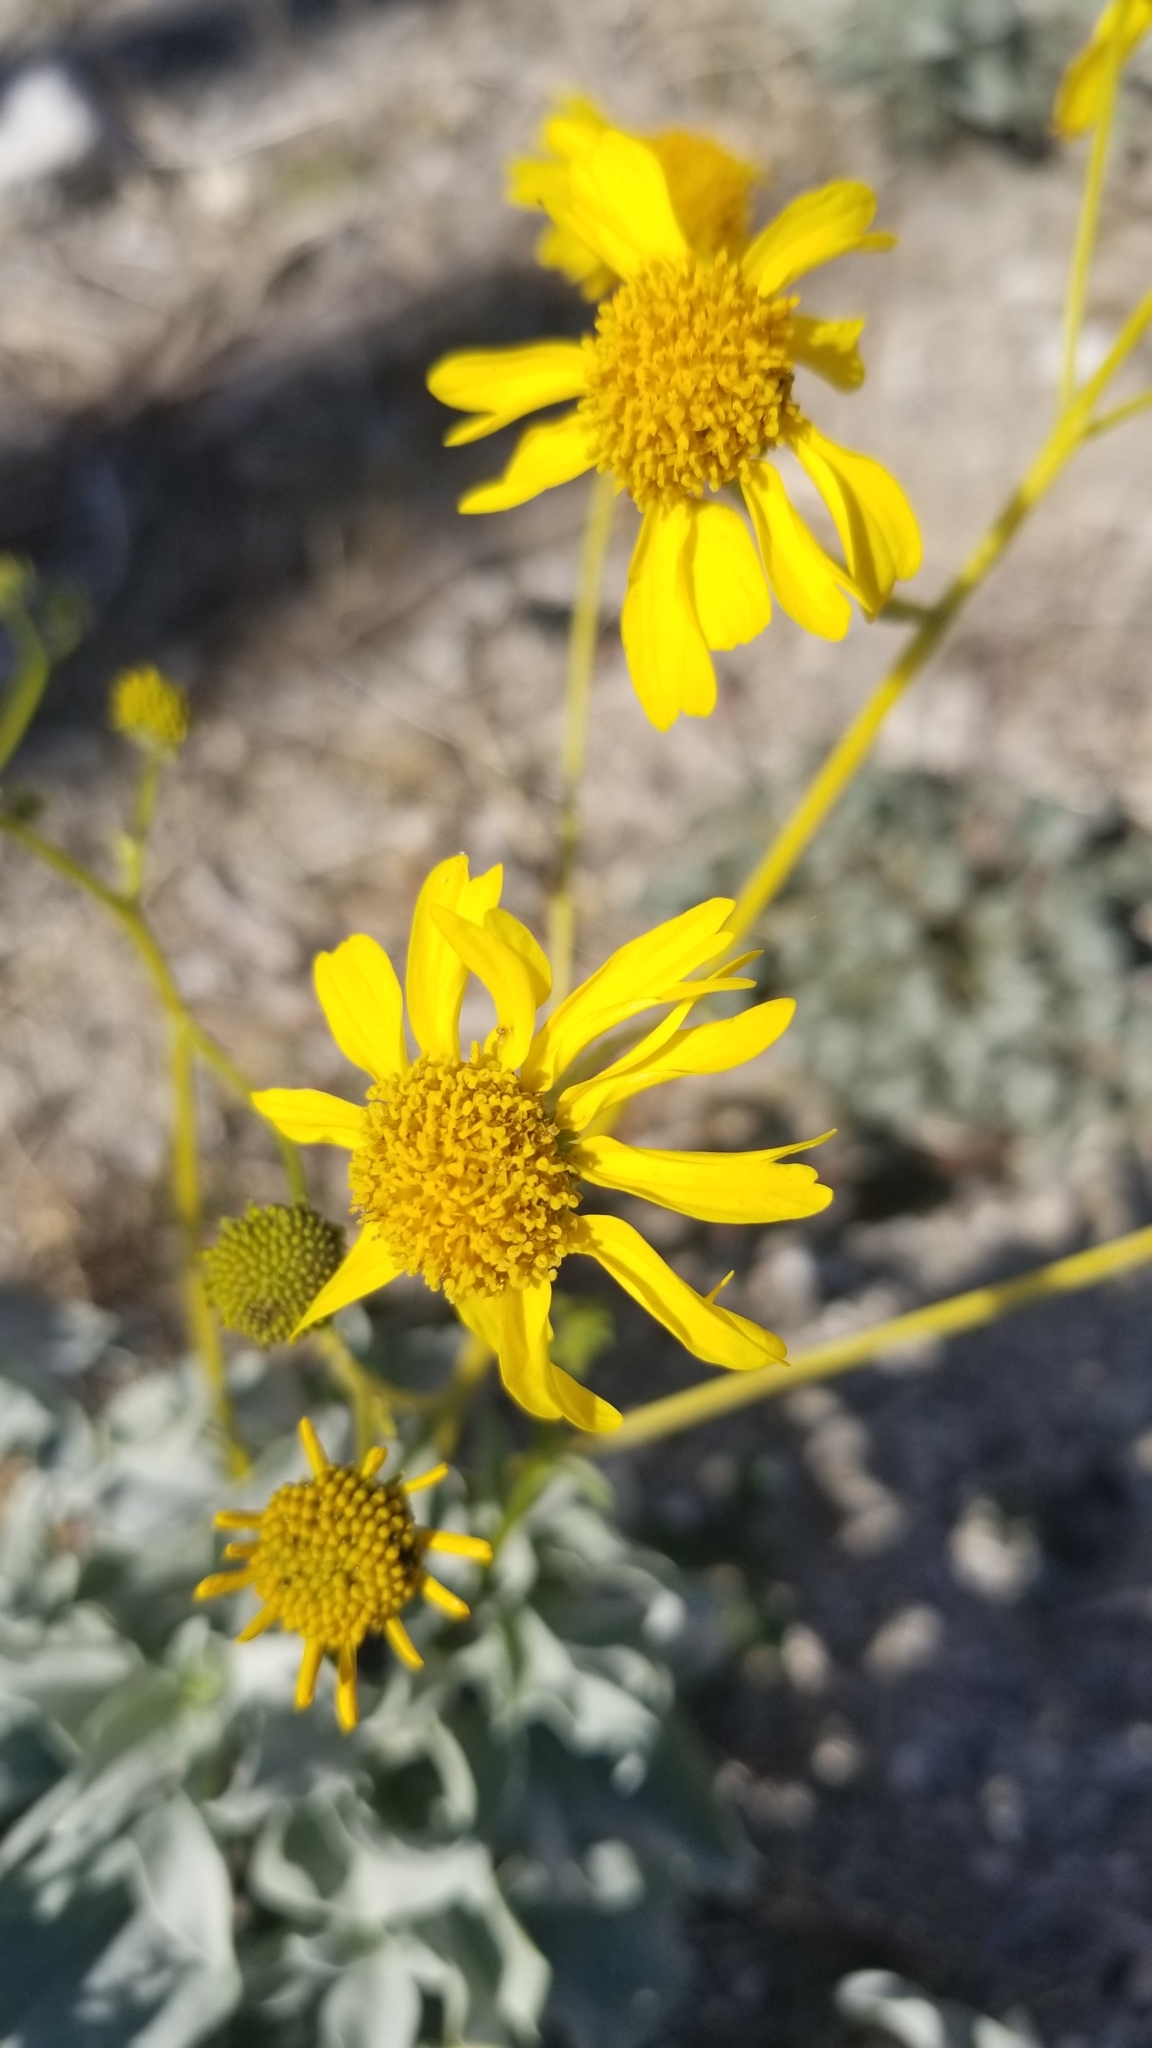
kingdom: Plantae
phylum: Tracheophyta
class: Magnoliopsida
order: Asterales
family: Asteraceae
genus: Encelia
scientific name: Encelia farinosa
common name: Brittlebush
